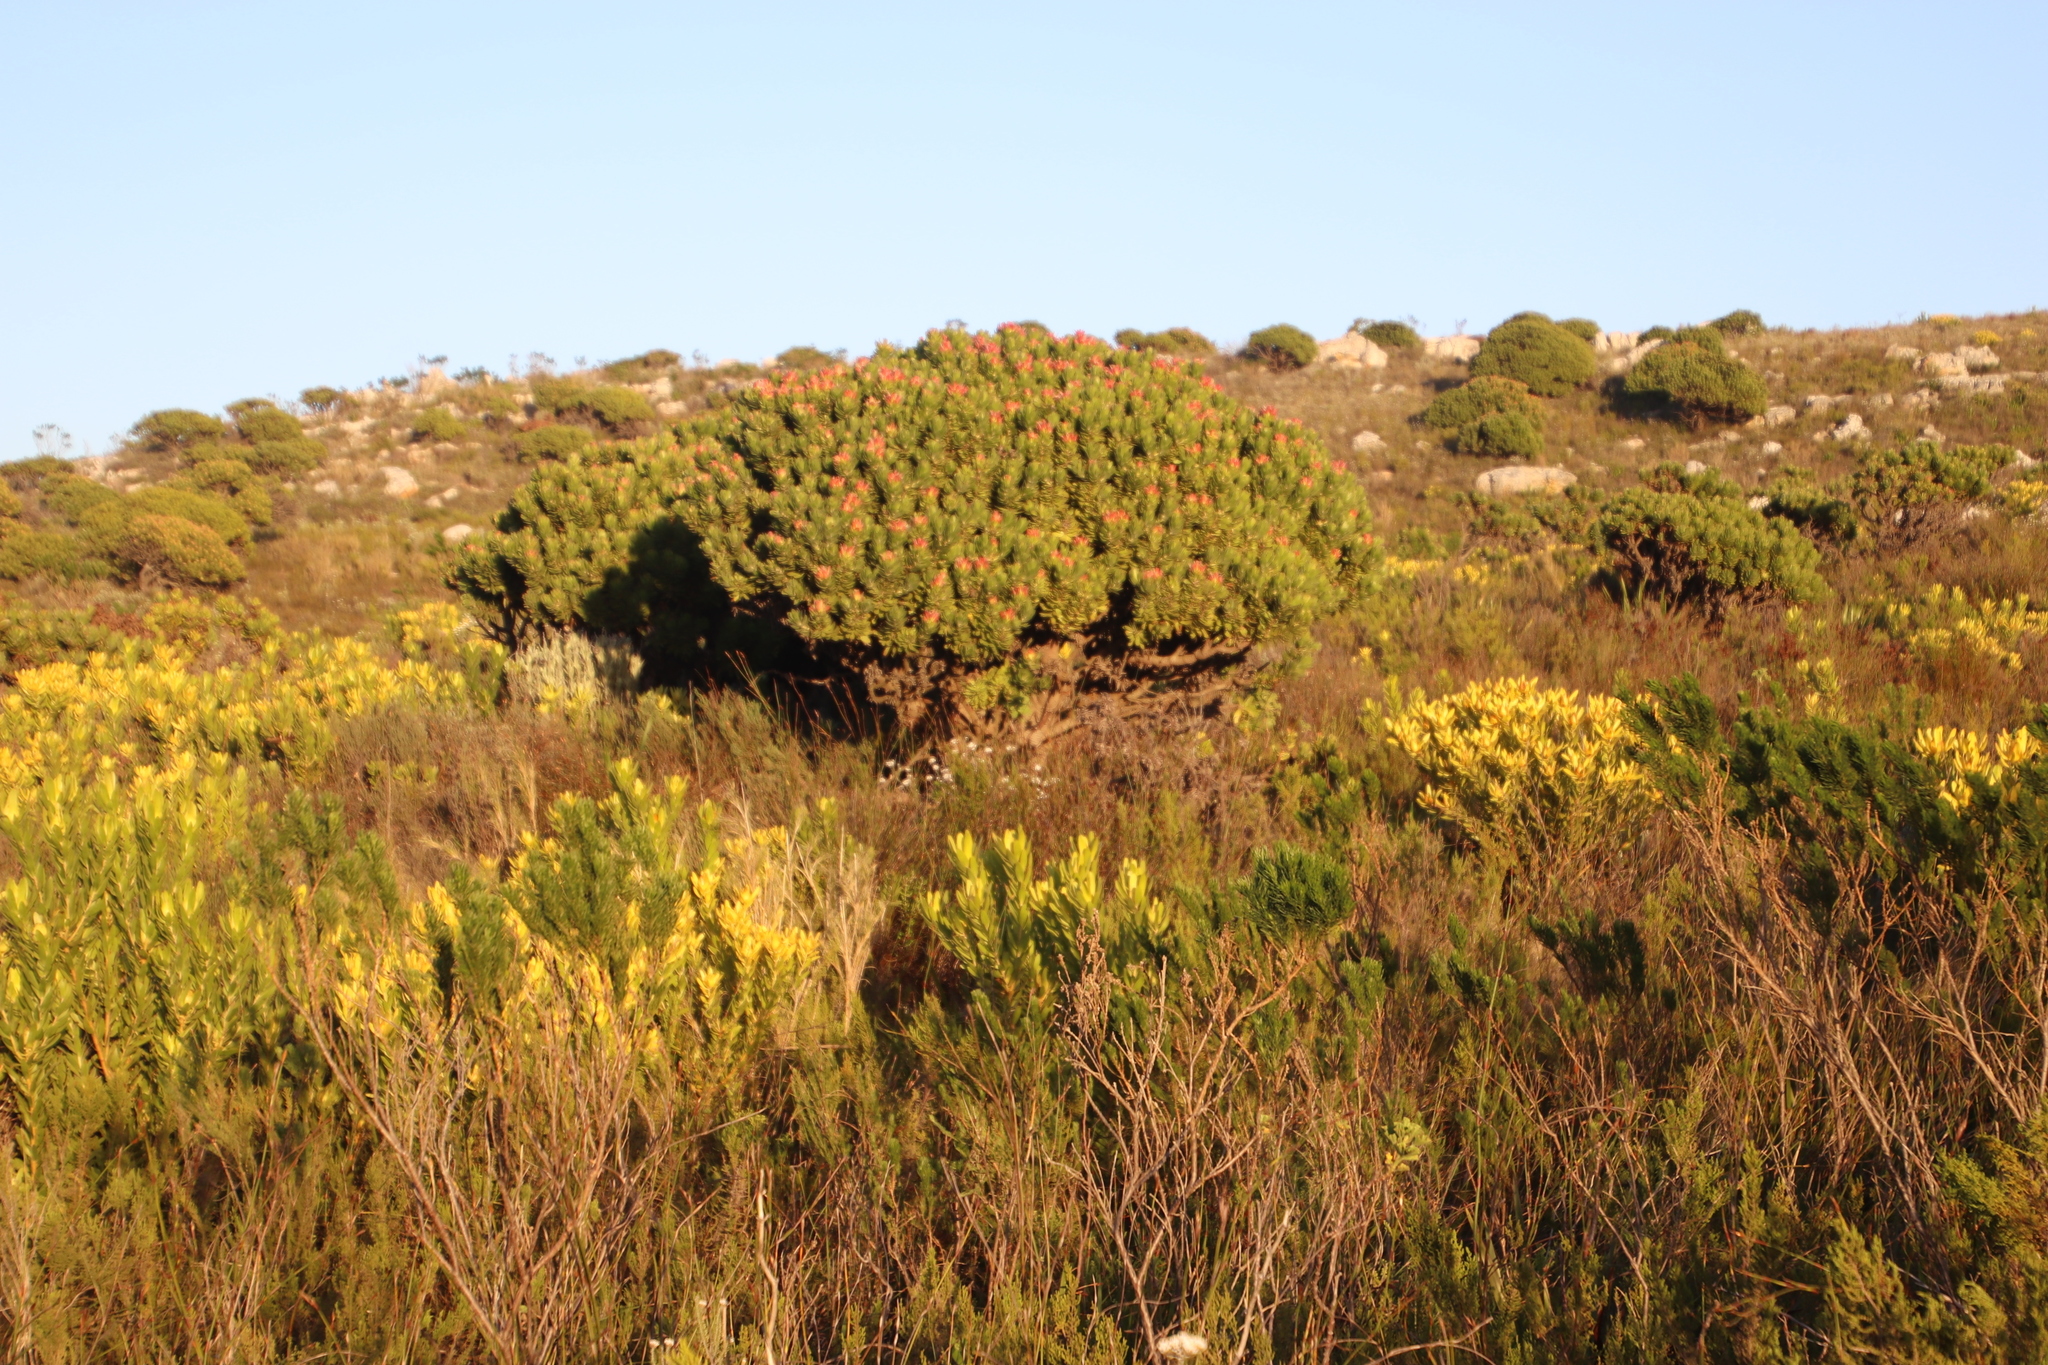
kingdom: Plantae
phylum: Tracheophyta
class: Magnoliopsida
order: Proteales
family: Proteaceae
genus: Mimetes
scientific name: Mimetes fimbriifolius
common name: Fringed bottlebrush
